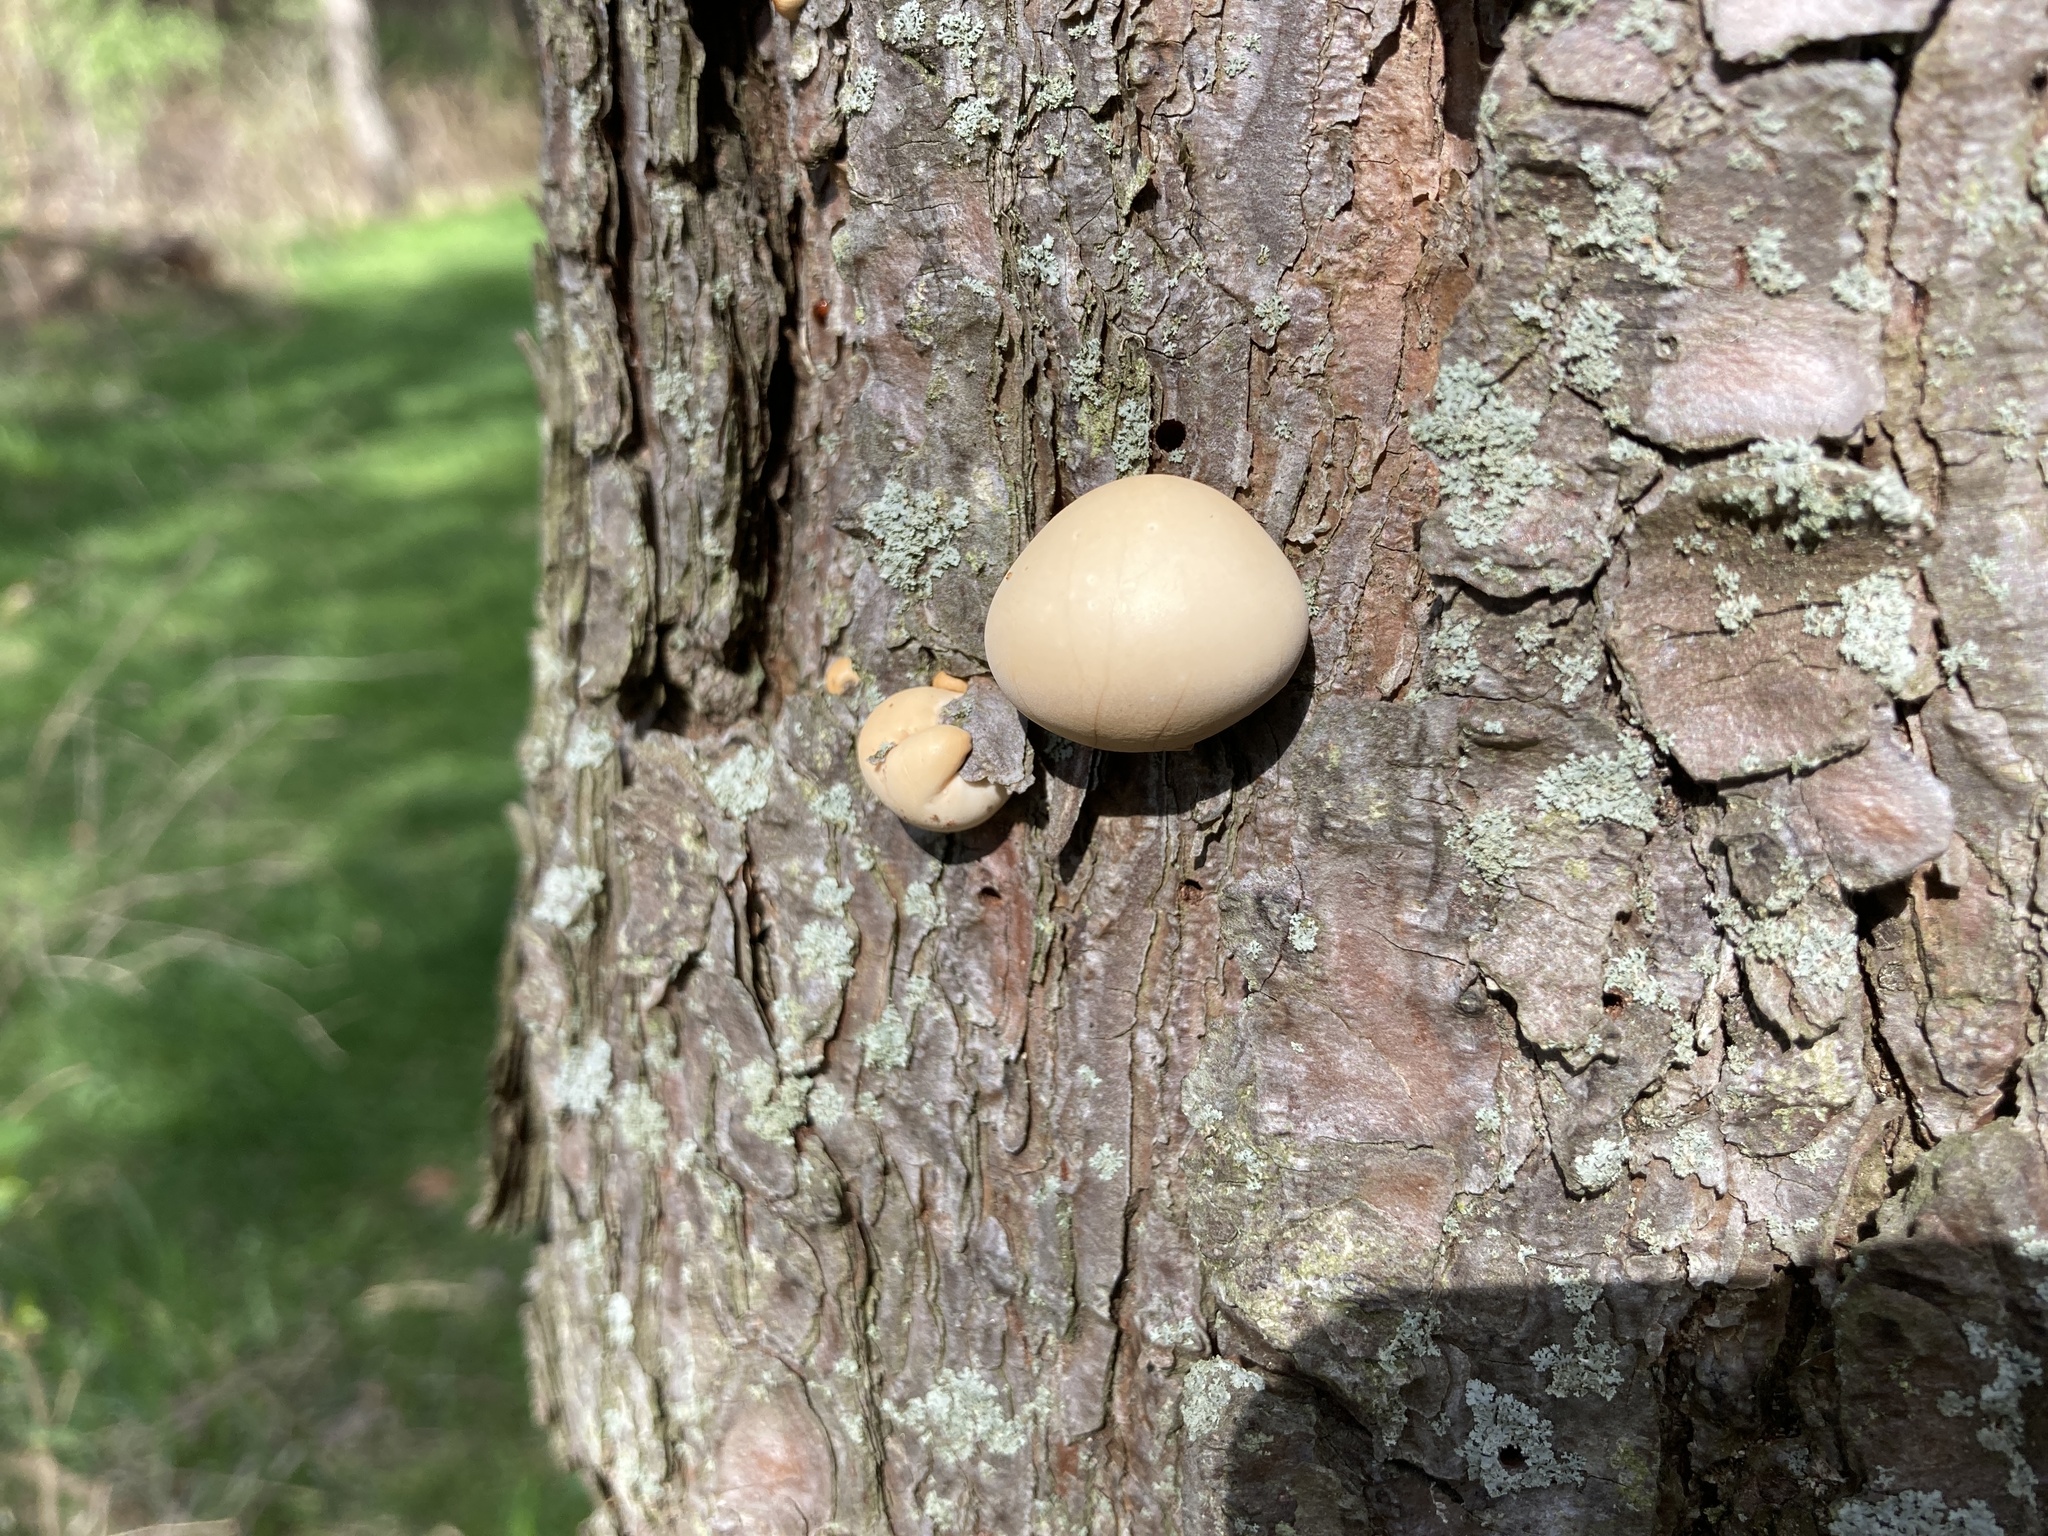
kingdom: Fungi
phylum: Basidiomycota
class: Agaricomycetes
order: Polyporales
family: Polyporaceae
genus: Cryptoporus
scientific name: Cryptoporus volvatus
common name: Veiled polypore
